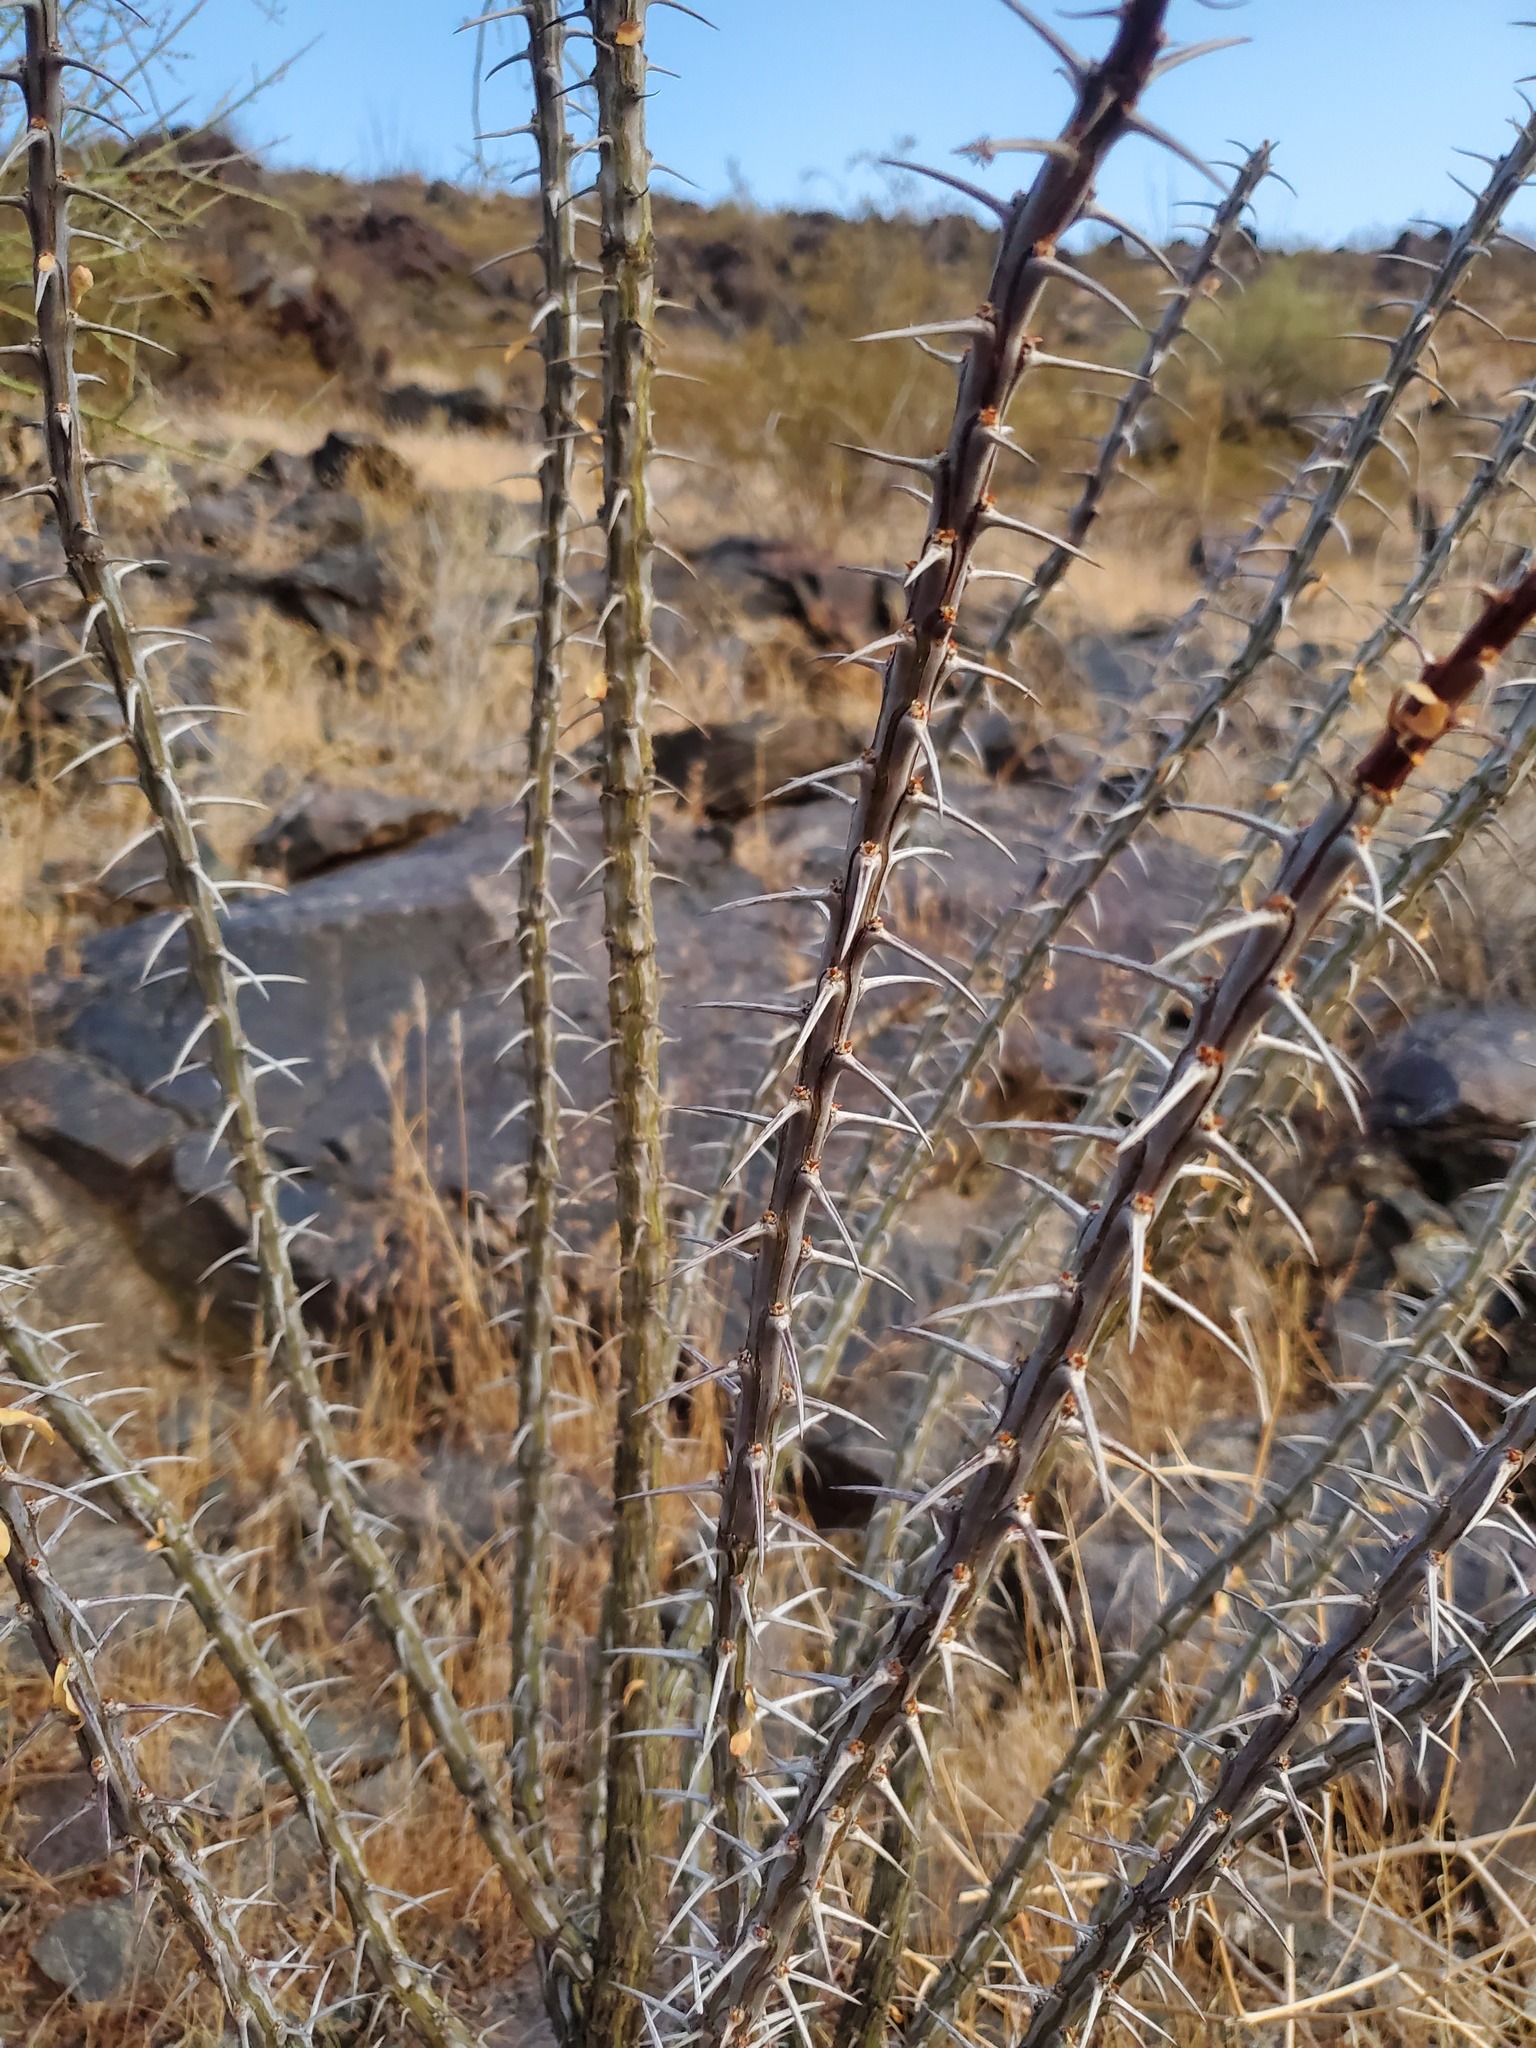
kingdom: Plantae
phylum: Tracheophyta
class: Magnoliopsida
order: Ericales
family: Fouquieriaceae
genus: Fouquieria
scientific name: Fouquieria splendens
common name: Vine-cactus
